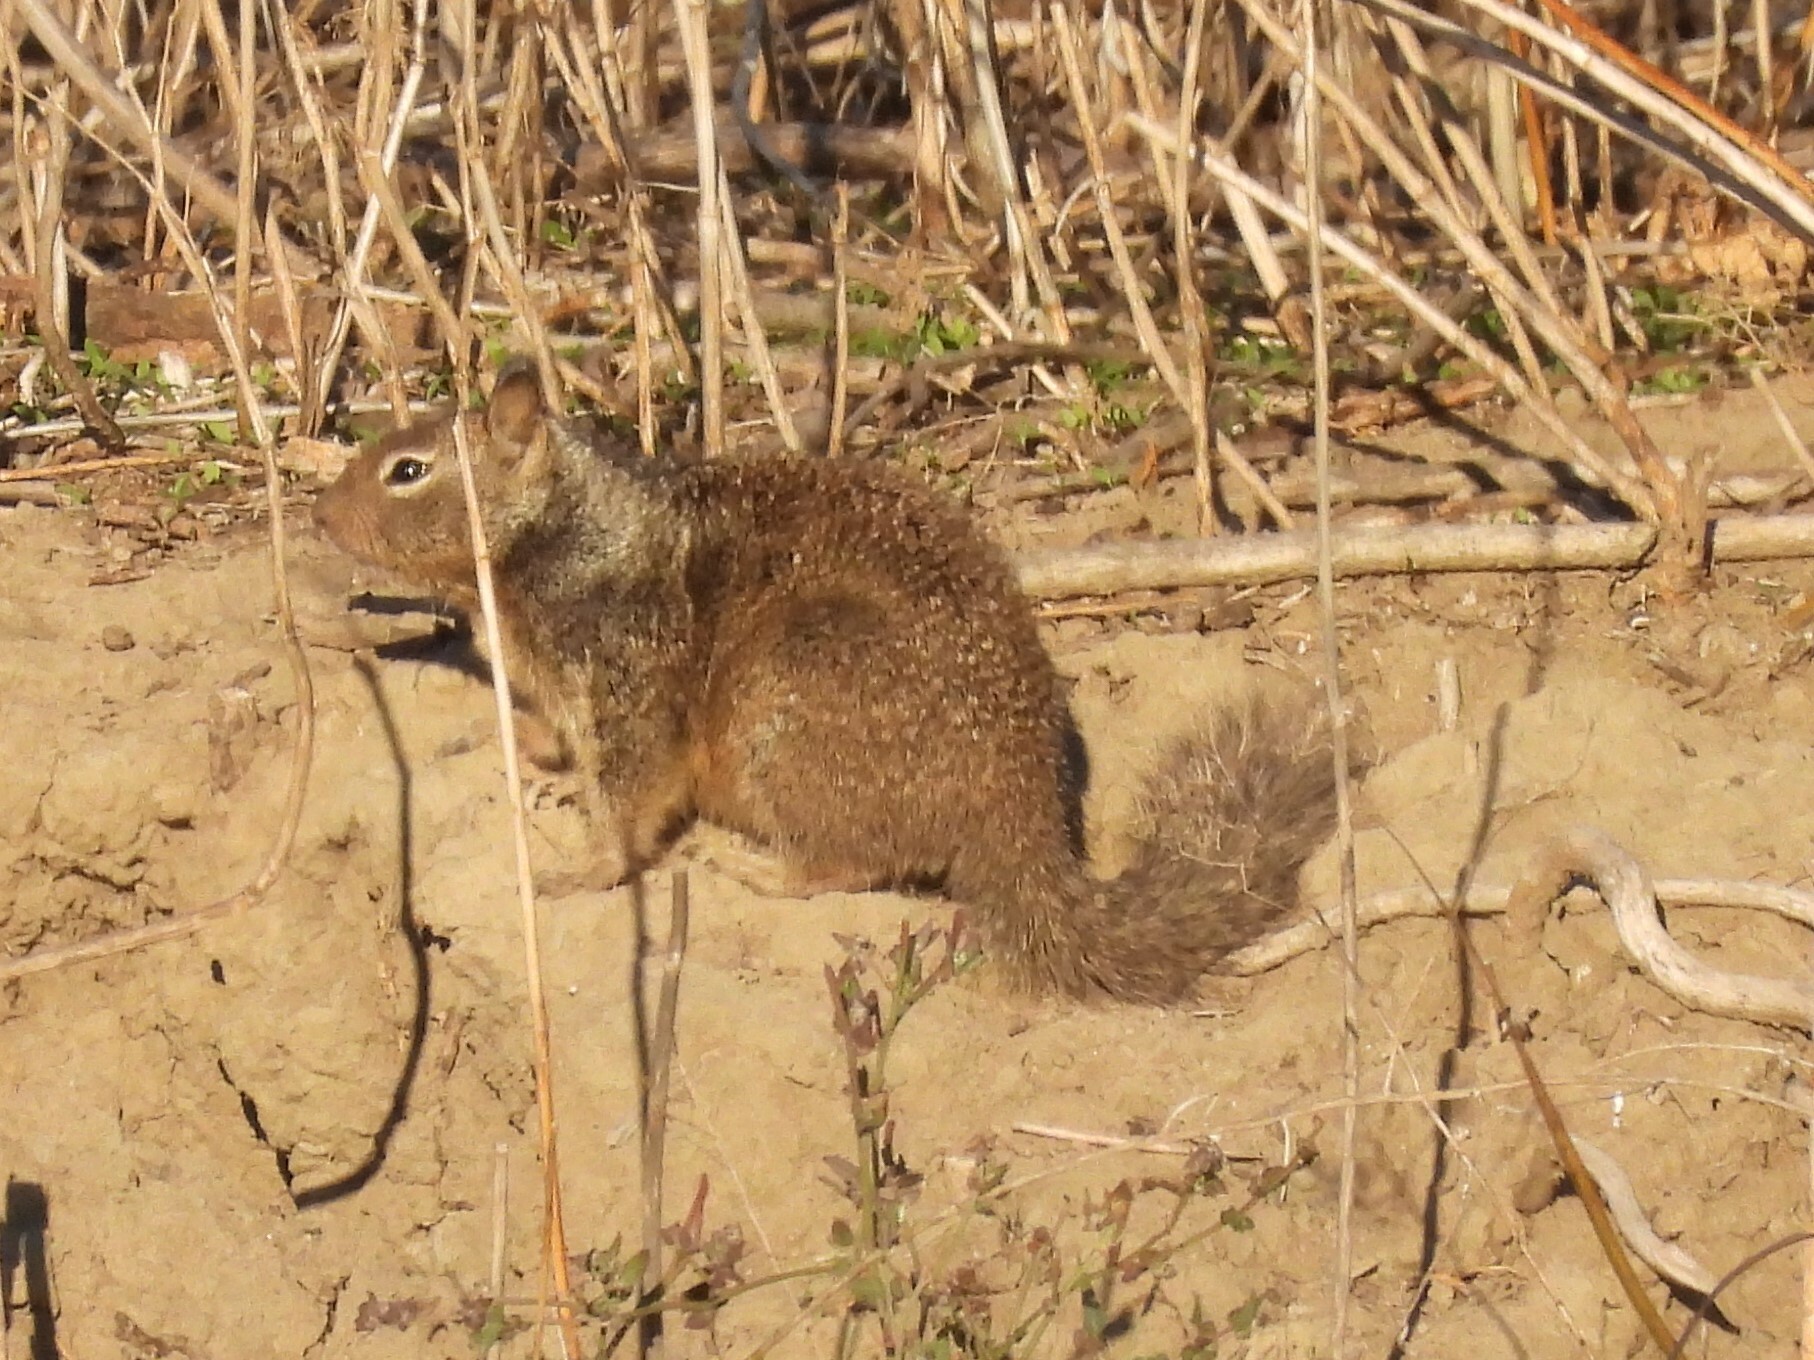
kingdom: Animalia
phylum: Chordata
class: Mammalia
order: Rodentia
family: Sciuridae
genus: Otospermophilus
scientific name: Otospermophilus beecheyi
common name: California ground squirrel
